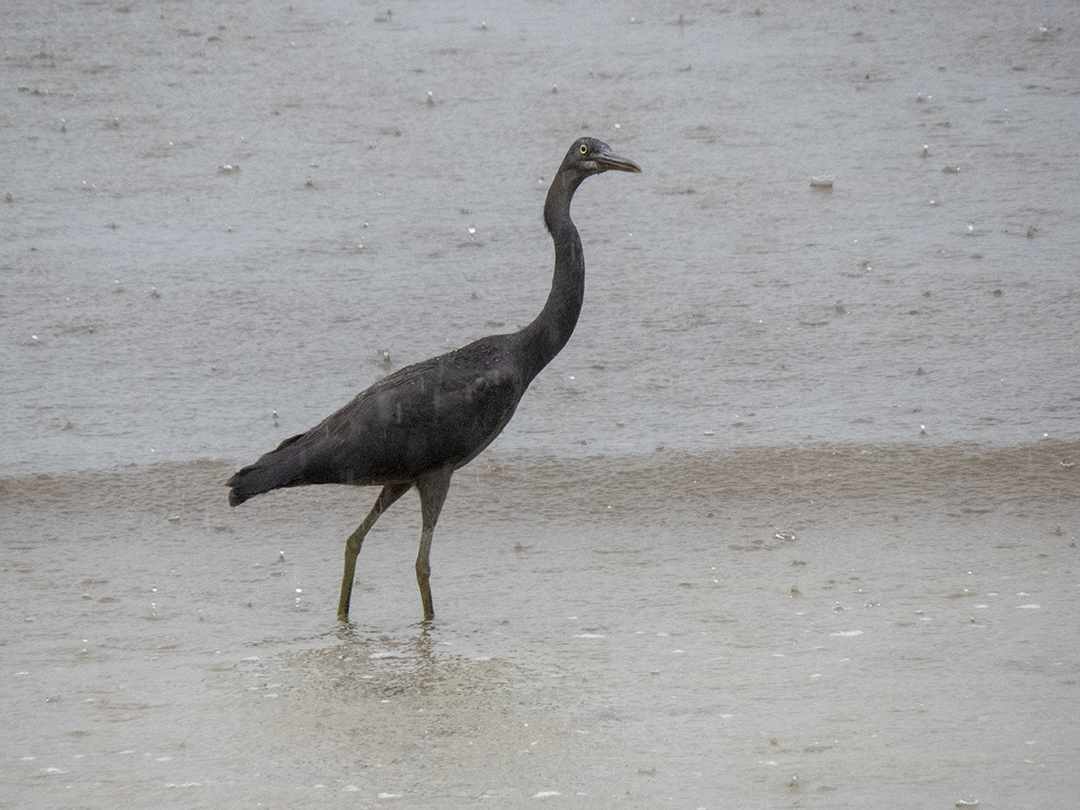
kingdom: Animalia
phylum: Chordata
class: Aves
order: Pelecaniformes
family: Ardeidae
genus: Egretta
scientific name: Egretta sacra
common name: Pacific reef heron
